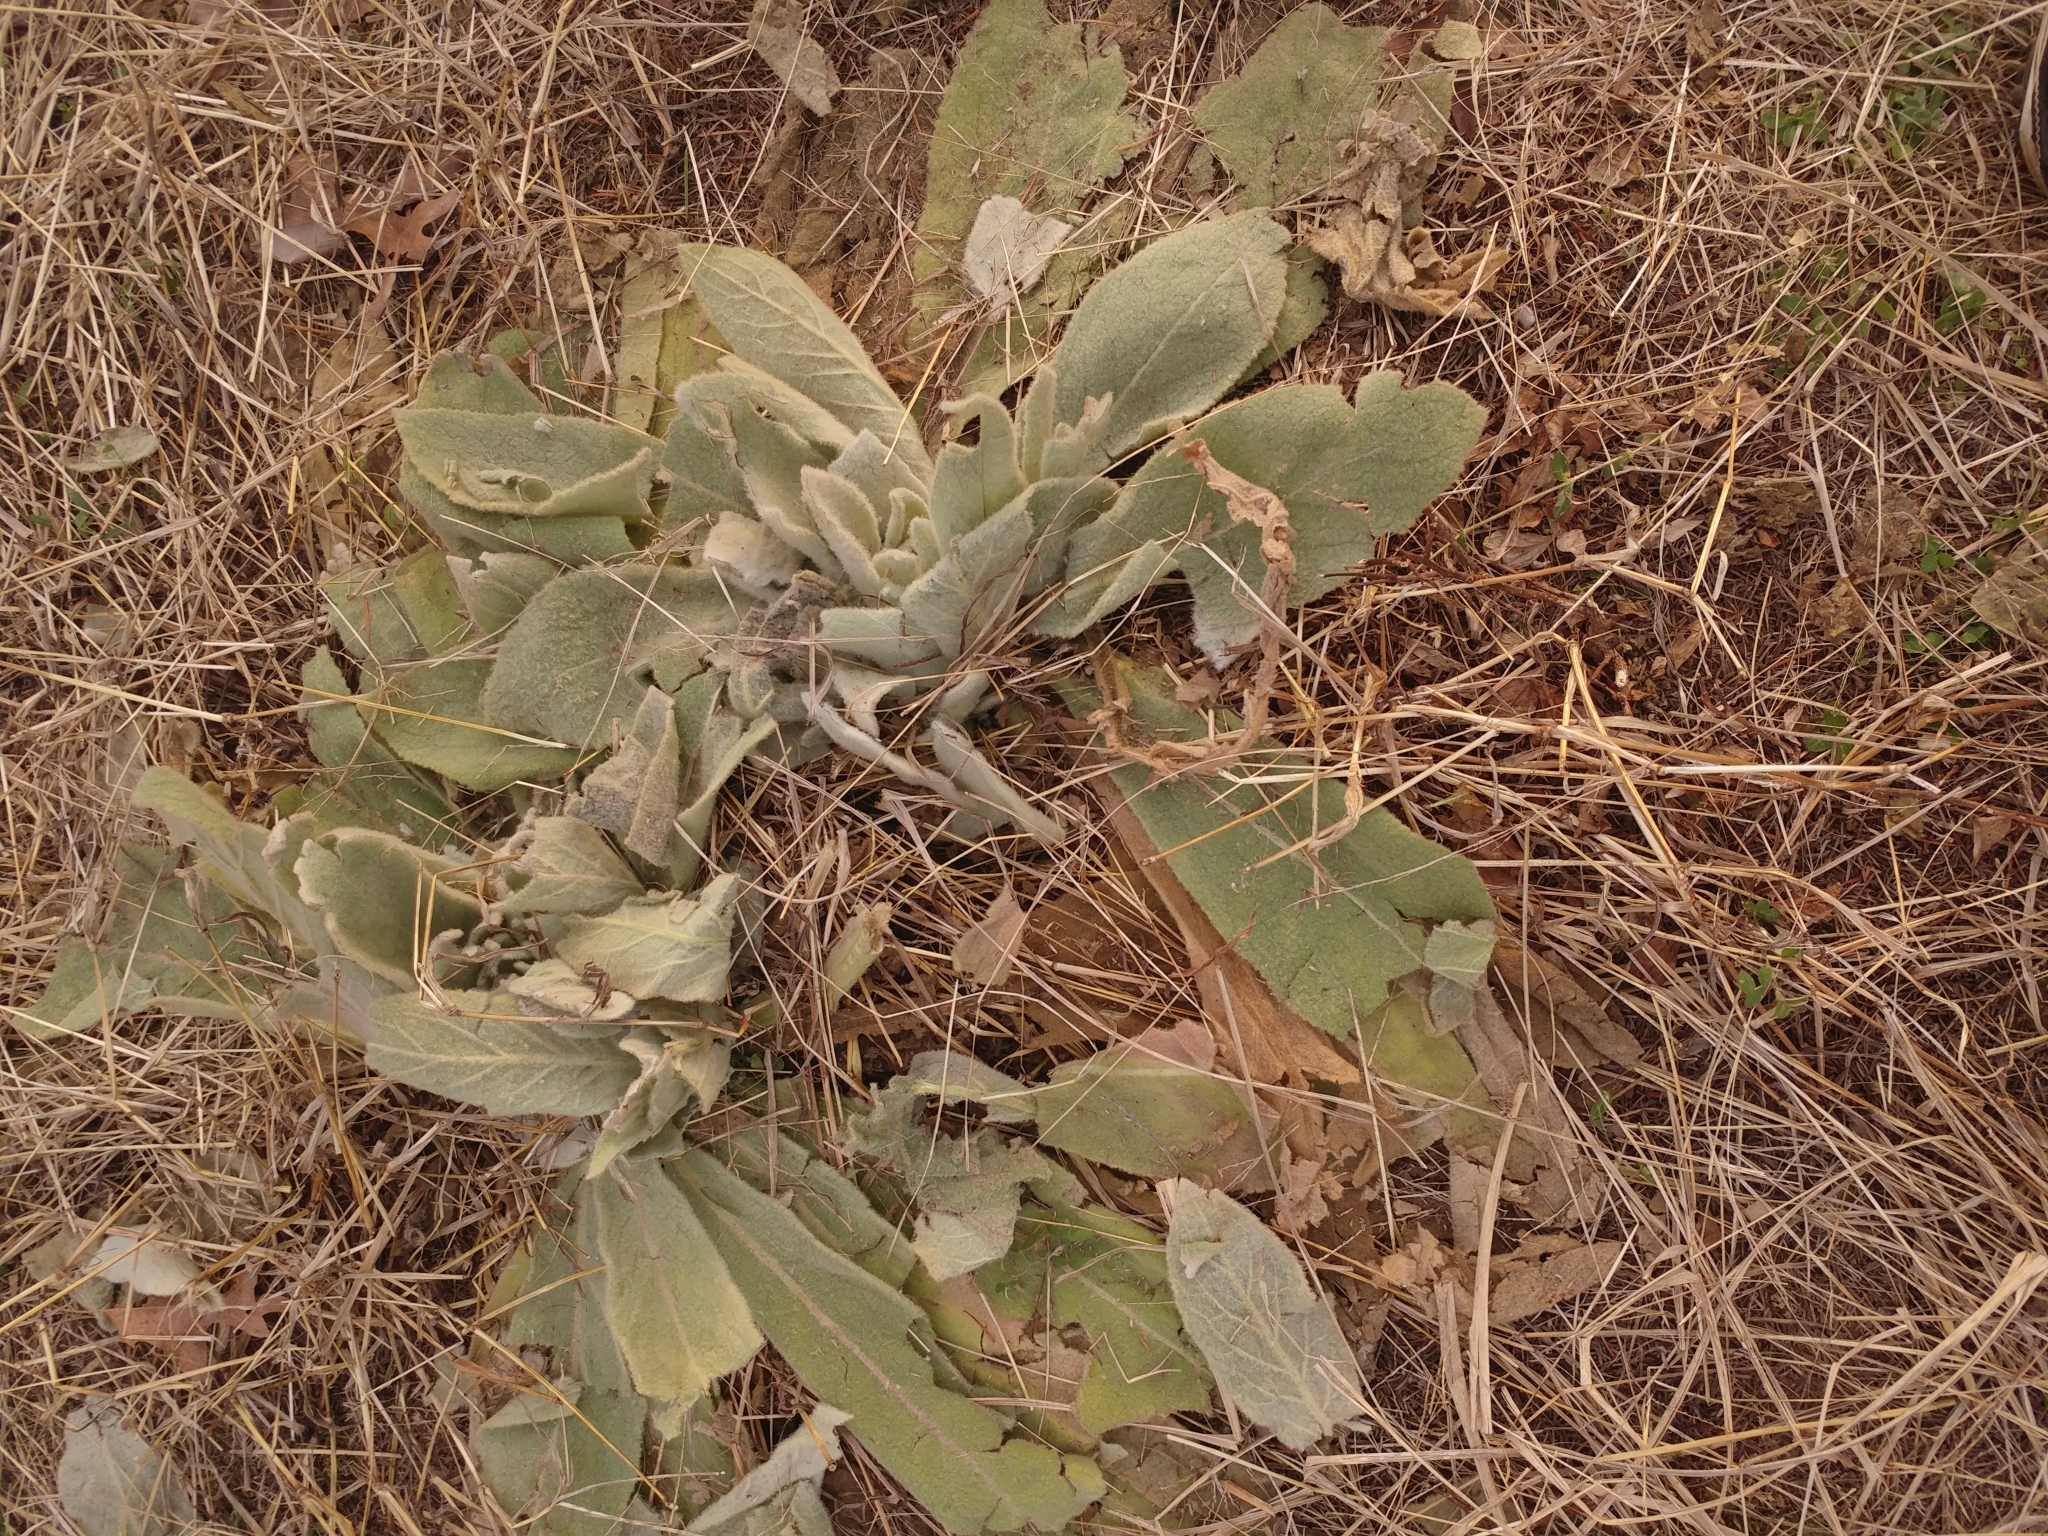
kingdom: Plantae
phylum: Tracheophyta
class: Magnoliopsida
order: Lamiales
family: Scrophulariaceae
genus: Verbascum
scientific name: Verbascum thapsus
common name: Common mullein
